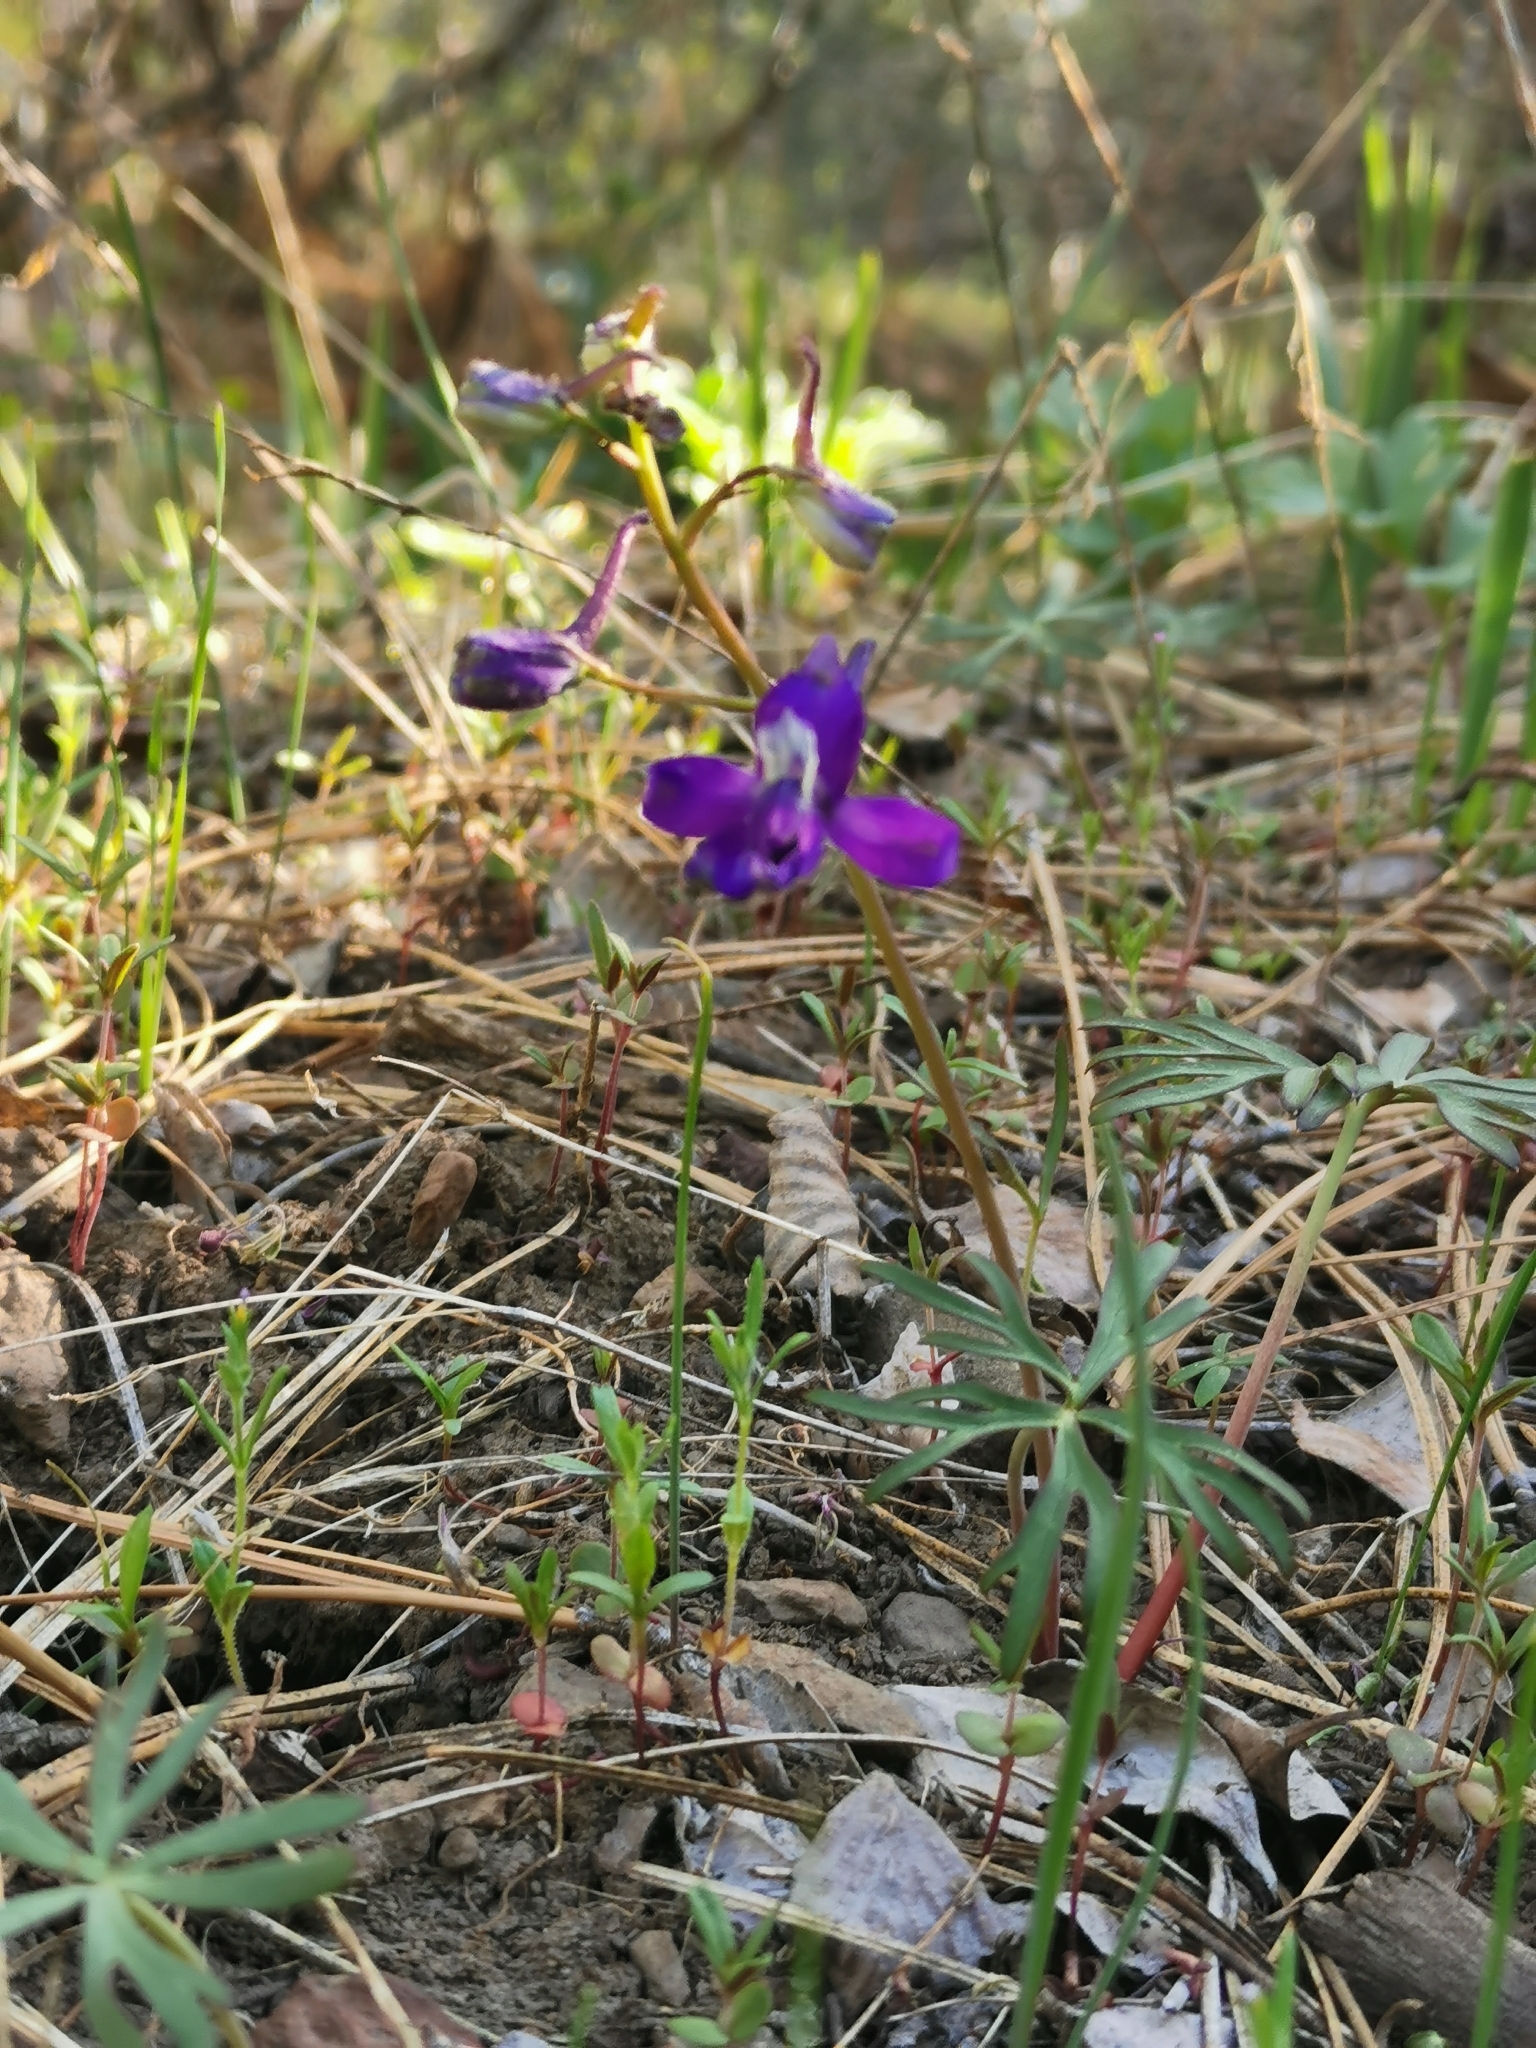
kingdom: Plantae
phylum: Tracheophyta
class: Magnoliopsida
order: Ranunculales
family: Ranunculaceae
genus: Delphinium
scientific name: Delphinium nuttallianum
